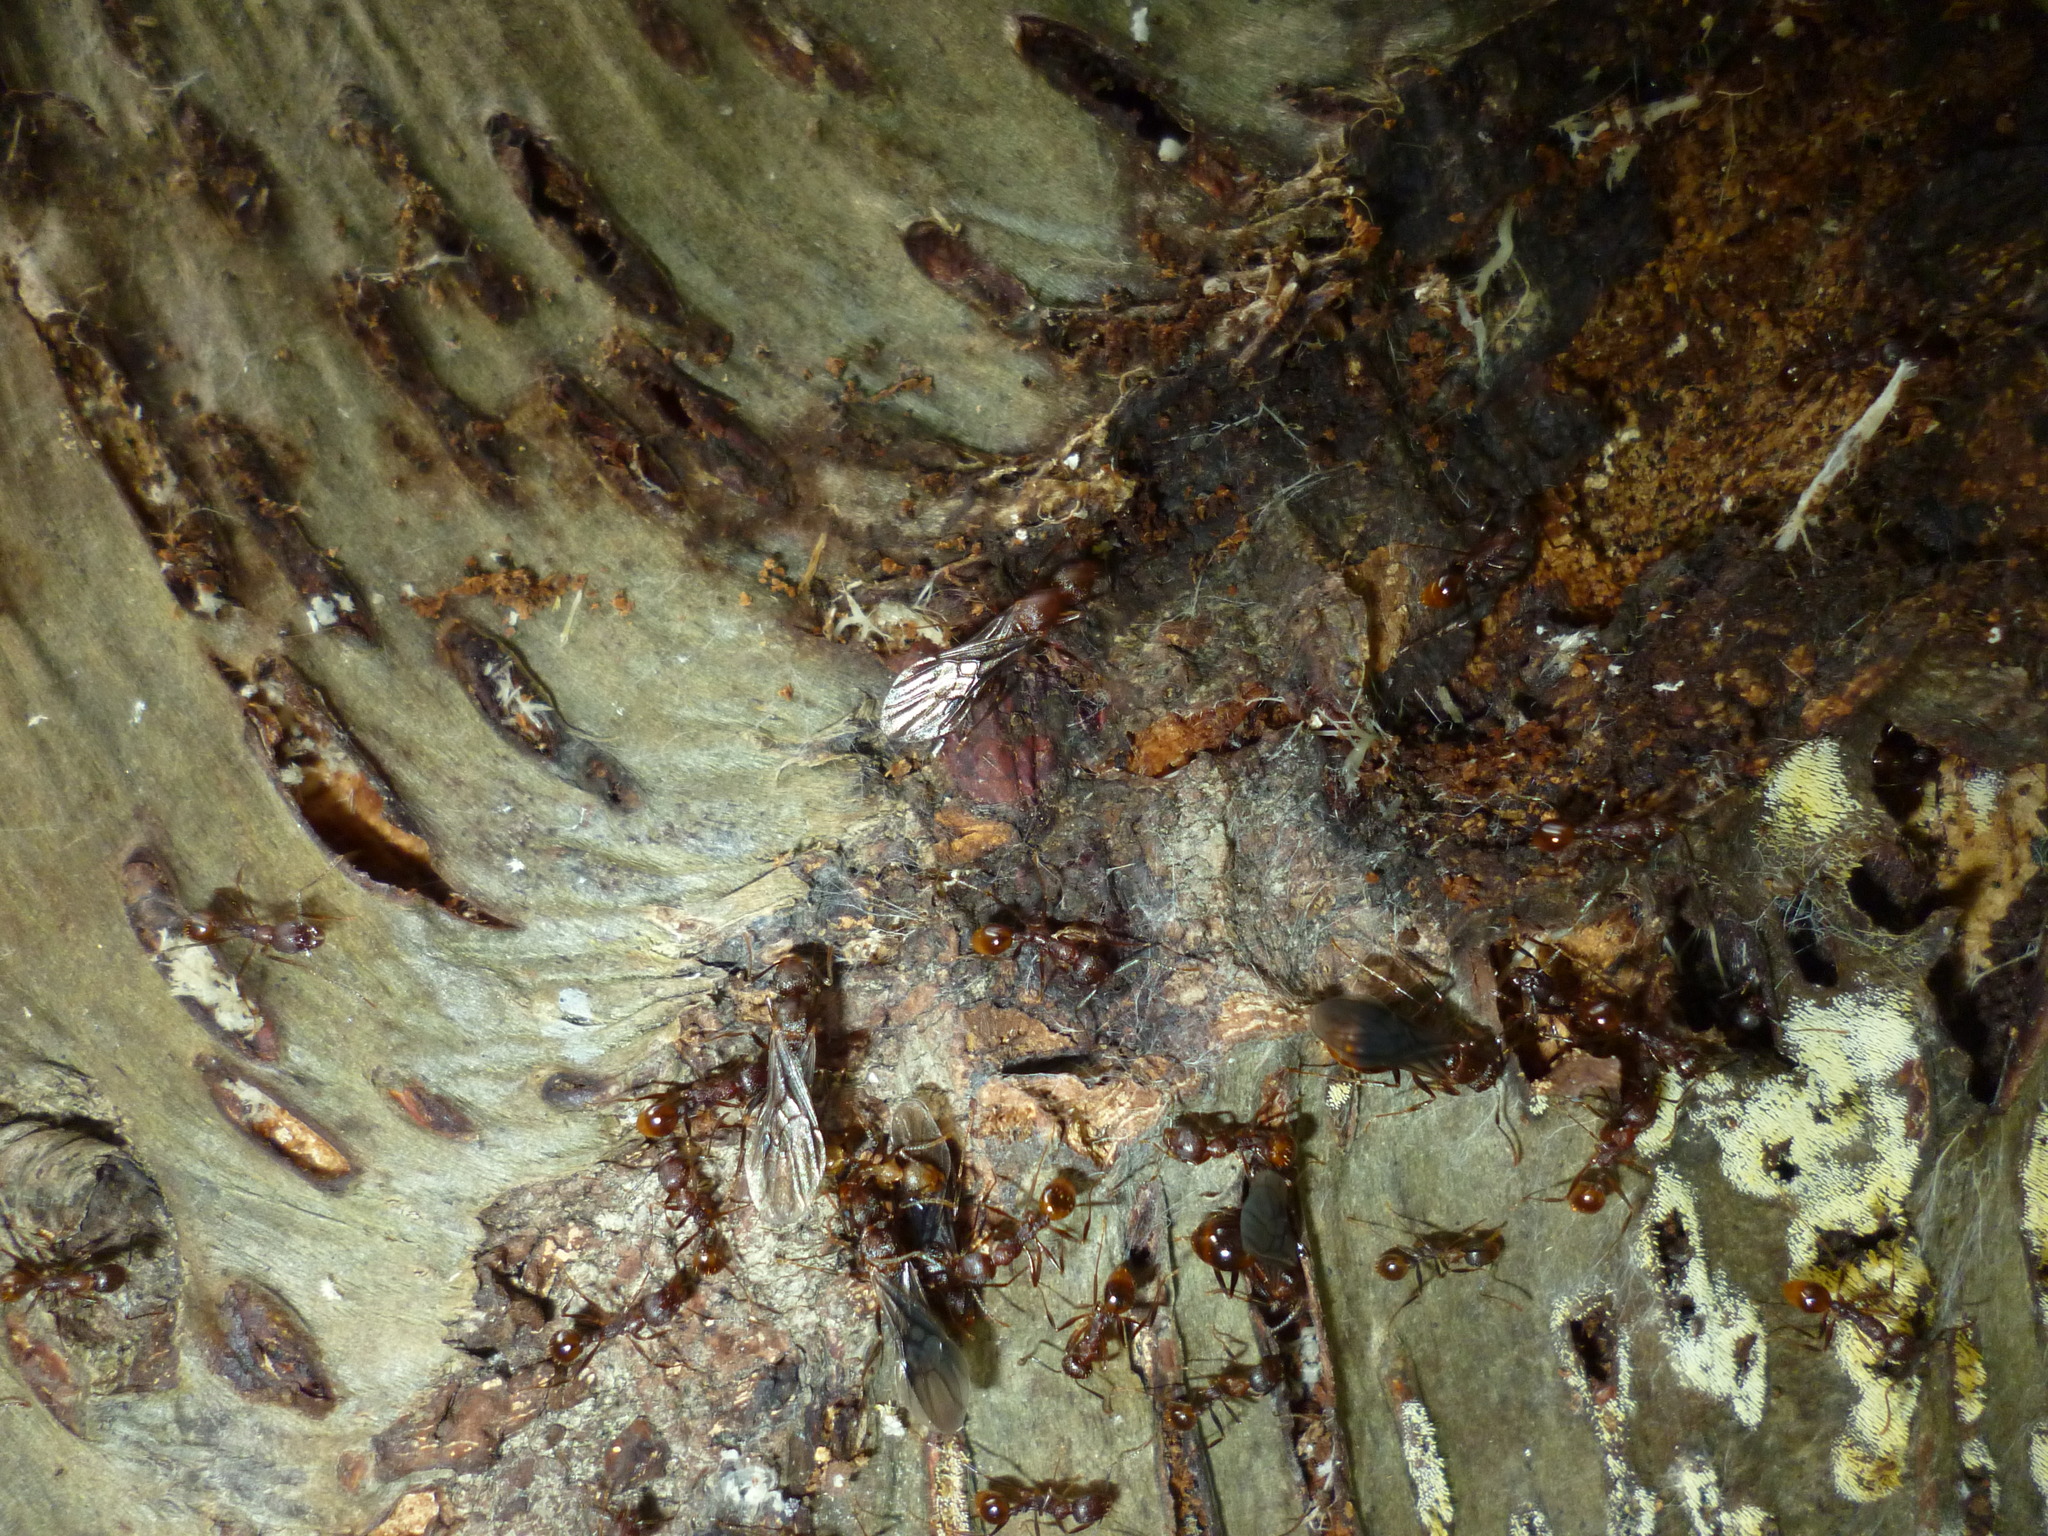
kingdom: Animalia
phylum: Arthropoda
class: Insecta
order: Hymenoptera
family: Formicidae
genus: Aphaenogaster
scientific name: Aphaenogaster fulva
